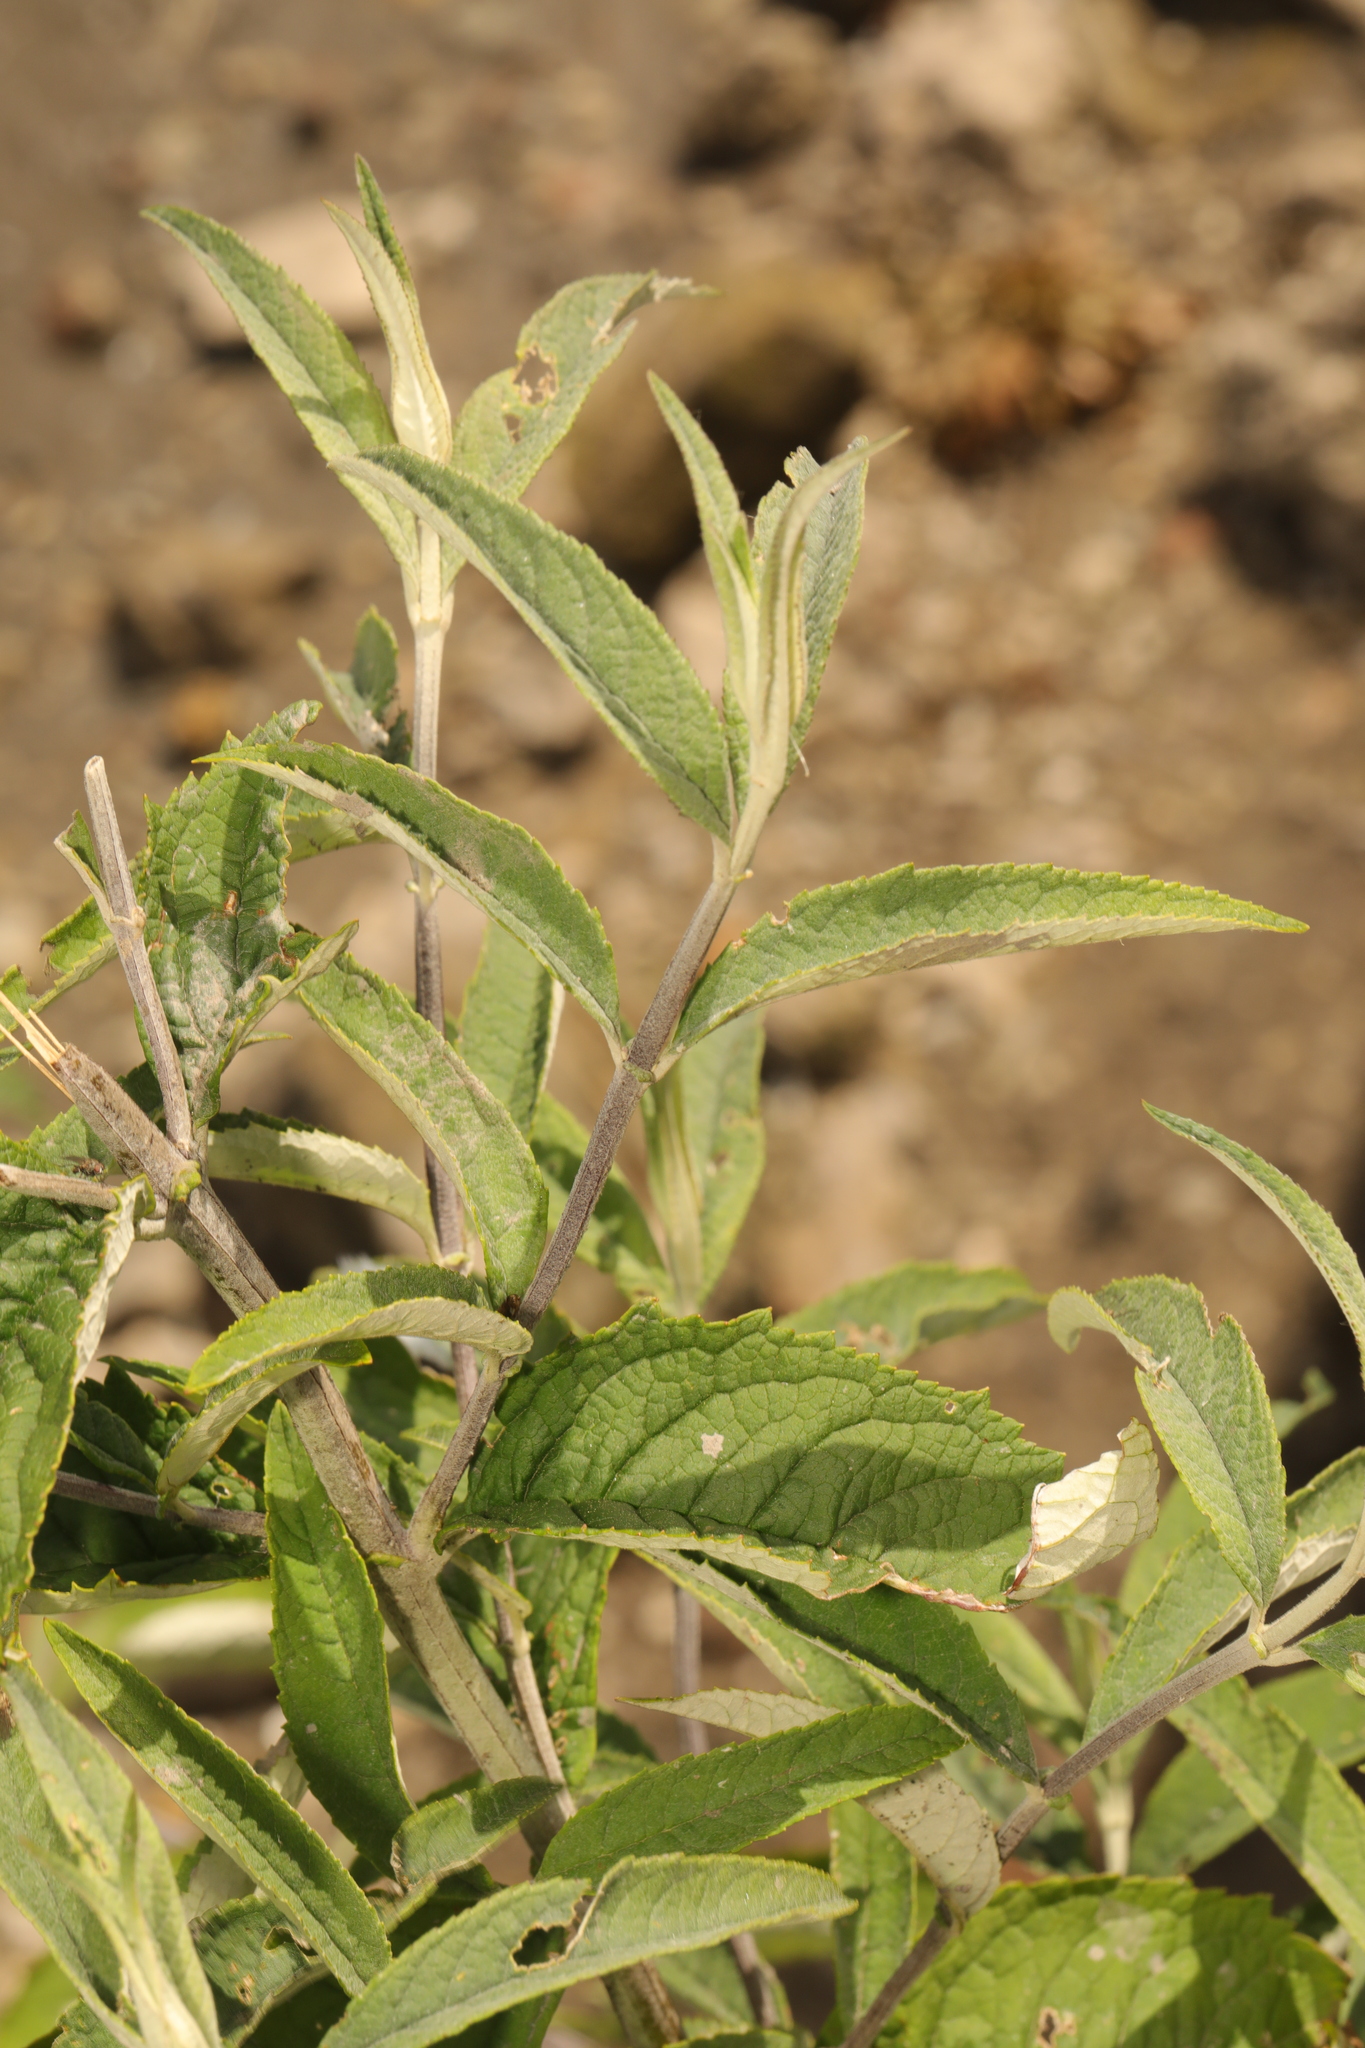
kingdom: Plantae
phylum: Tracheophyta
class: Magnoliopsida
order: Lamiales
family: Scrophulariaceae
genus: Buddleja
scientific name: Buddleja davidii
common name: Butterfly-bush
